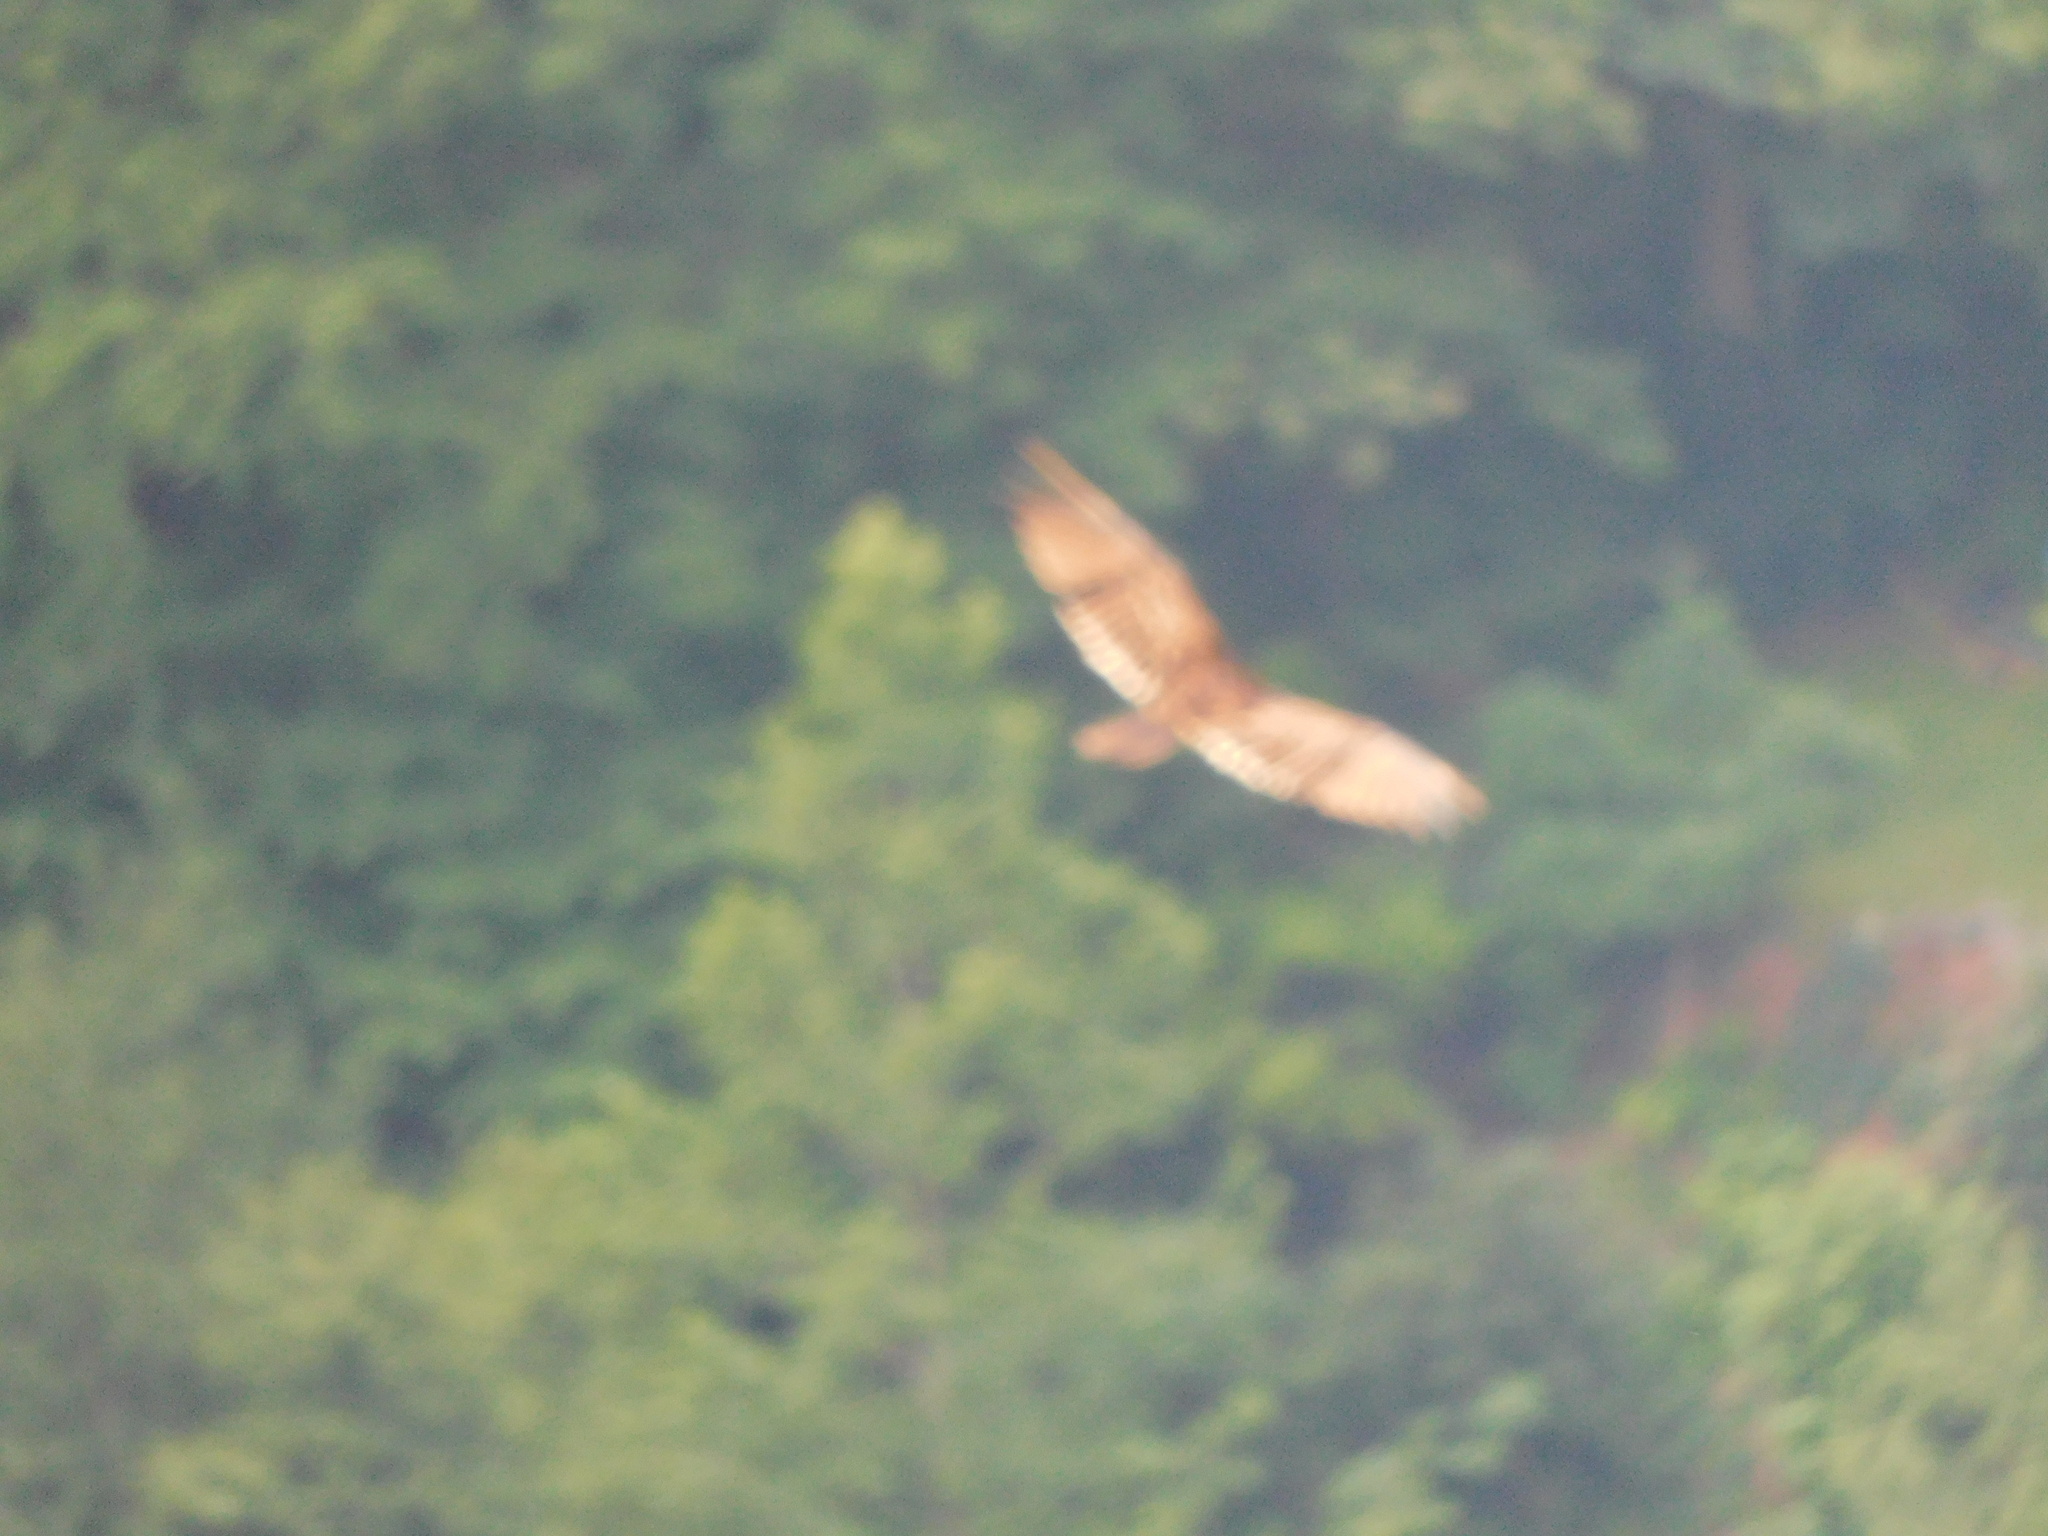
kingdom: Animalia
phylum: Chordata
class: Aves
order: Accipitriformes
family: Cathartidae
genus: Cathartes
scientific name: Cathartes aura
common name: Turkey vulture
